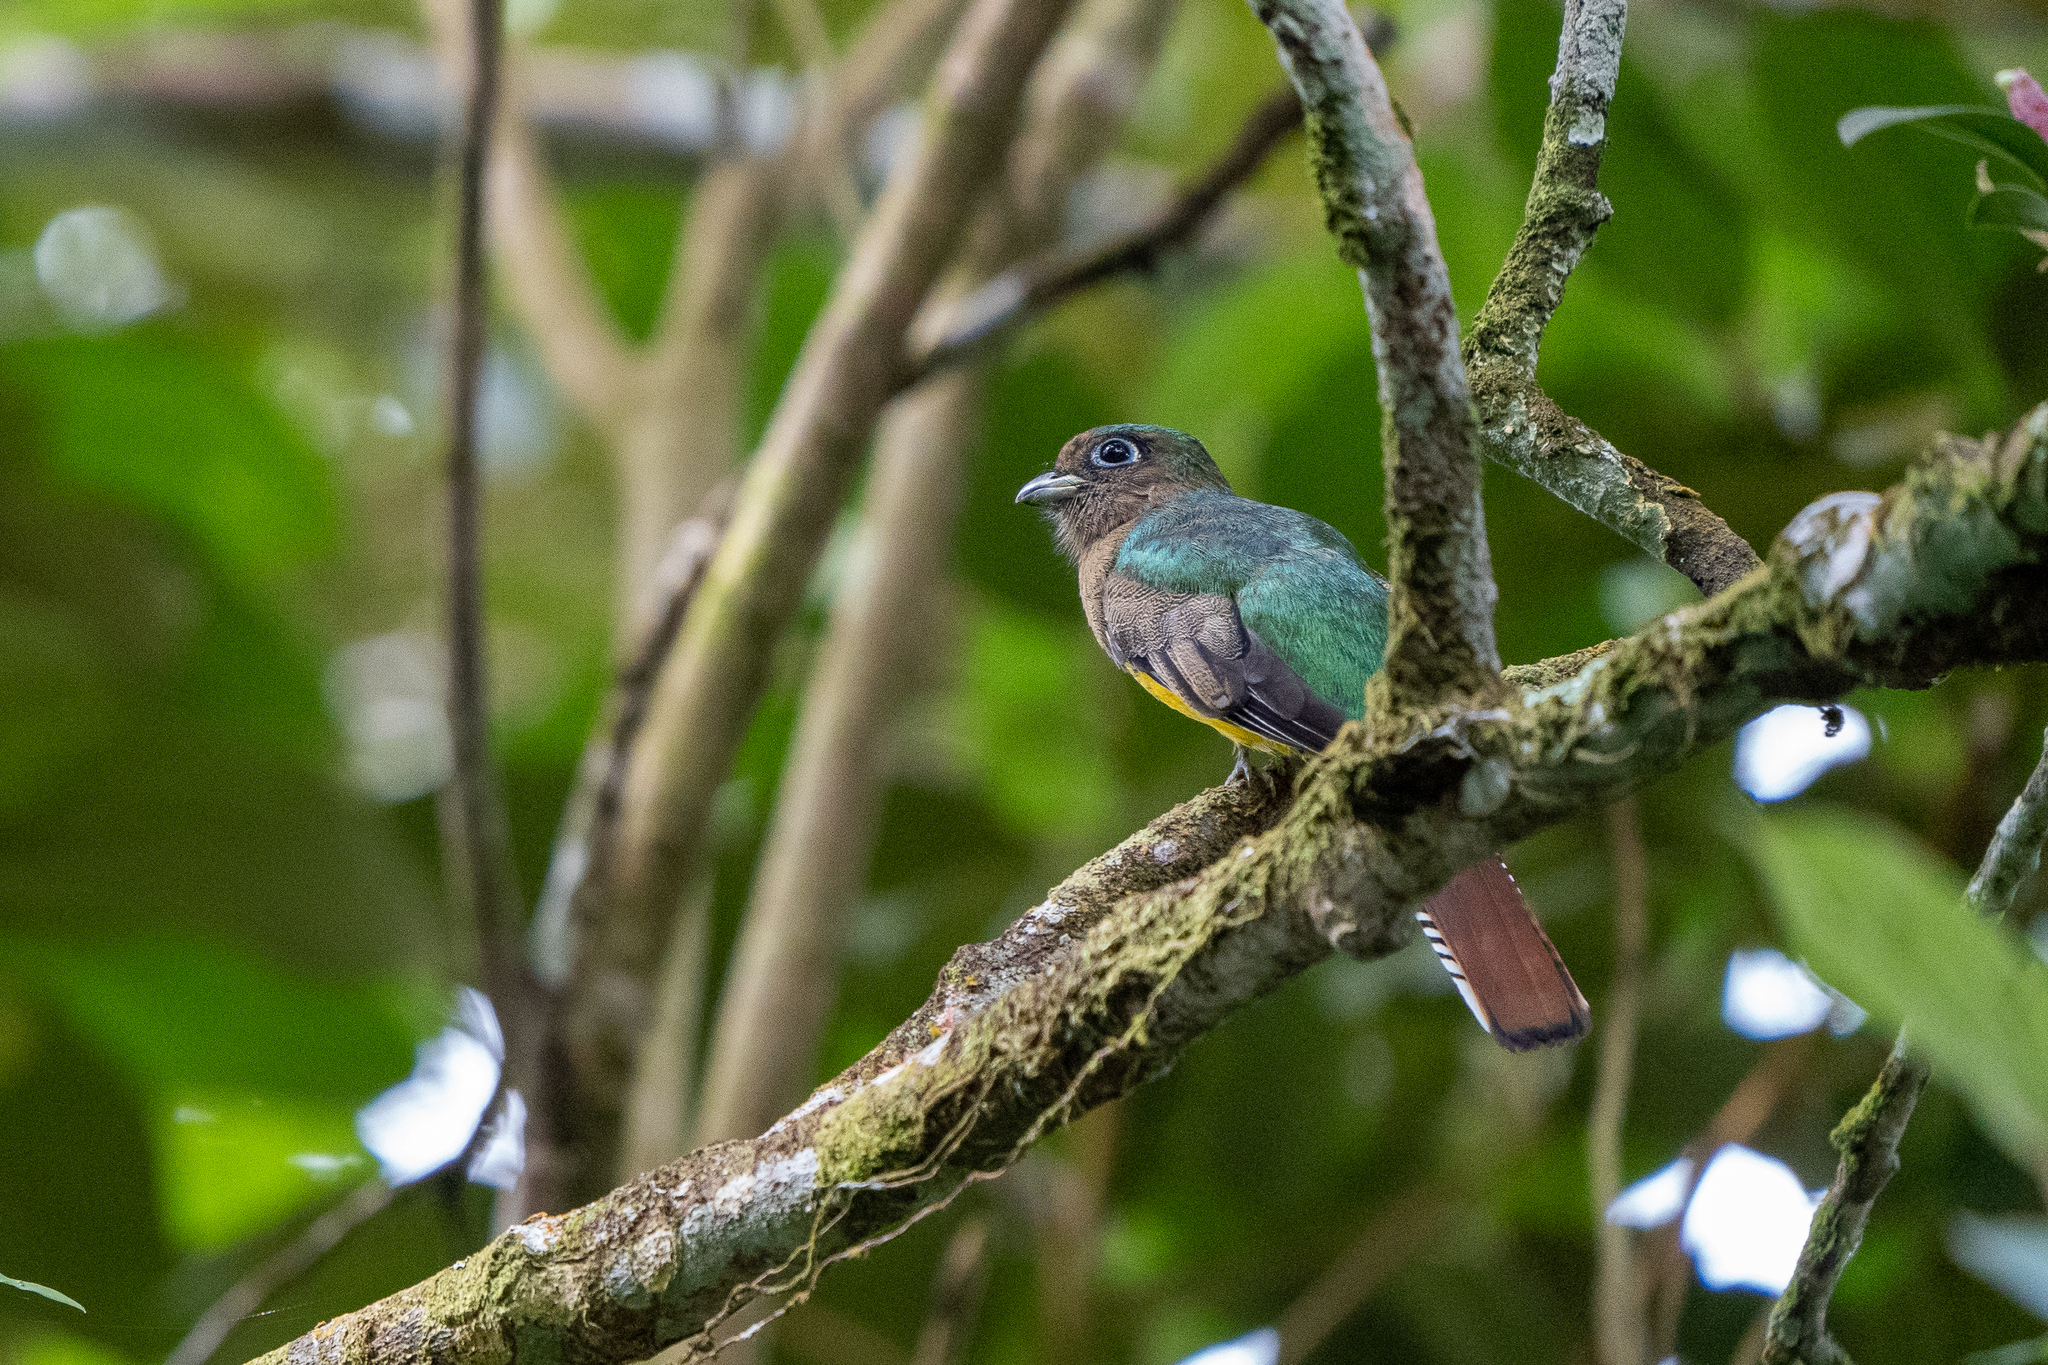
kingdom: Animalia
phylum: Chordata
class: Aves
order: Trogoniformes
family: Trogonidae
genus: Trogon
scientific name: Trogon rufus
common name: Black-throated trogon
